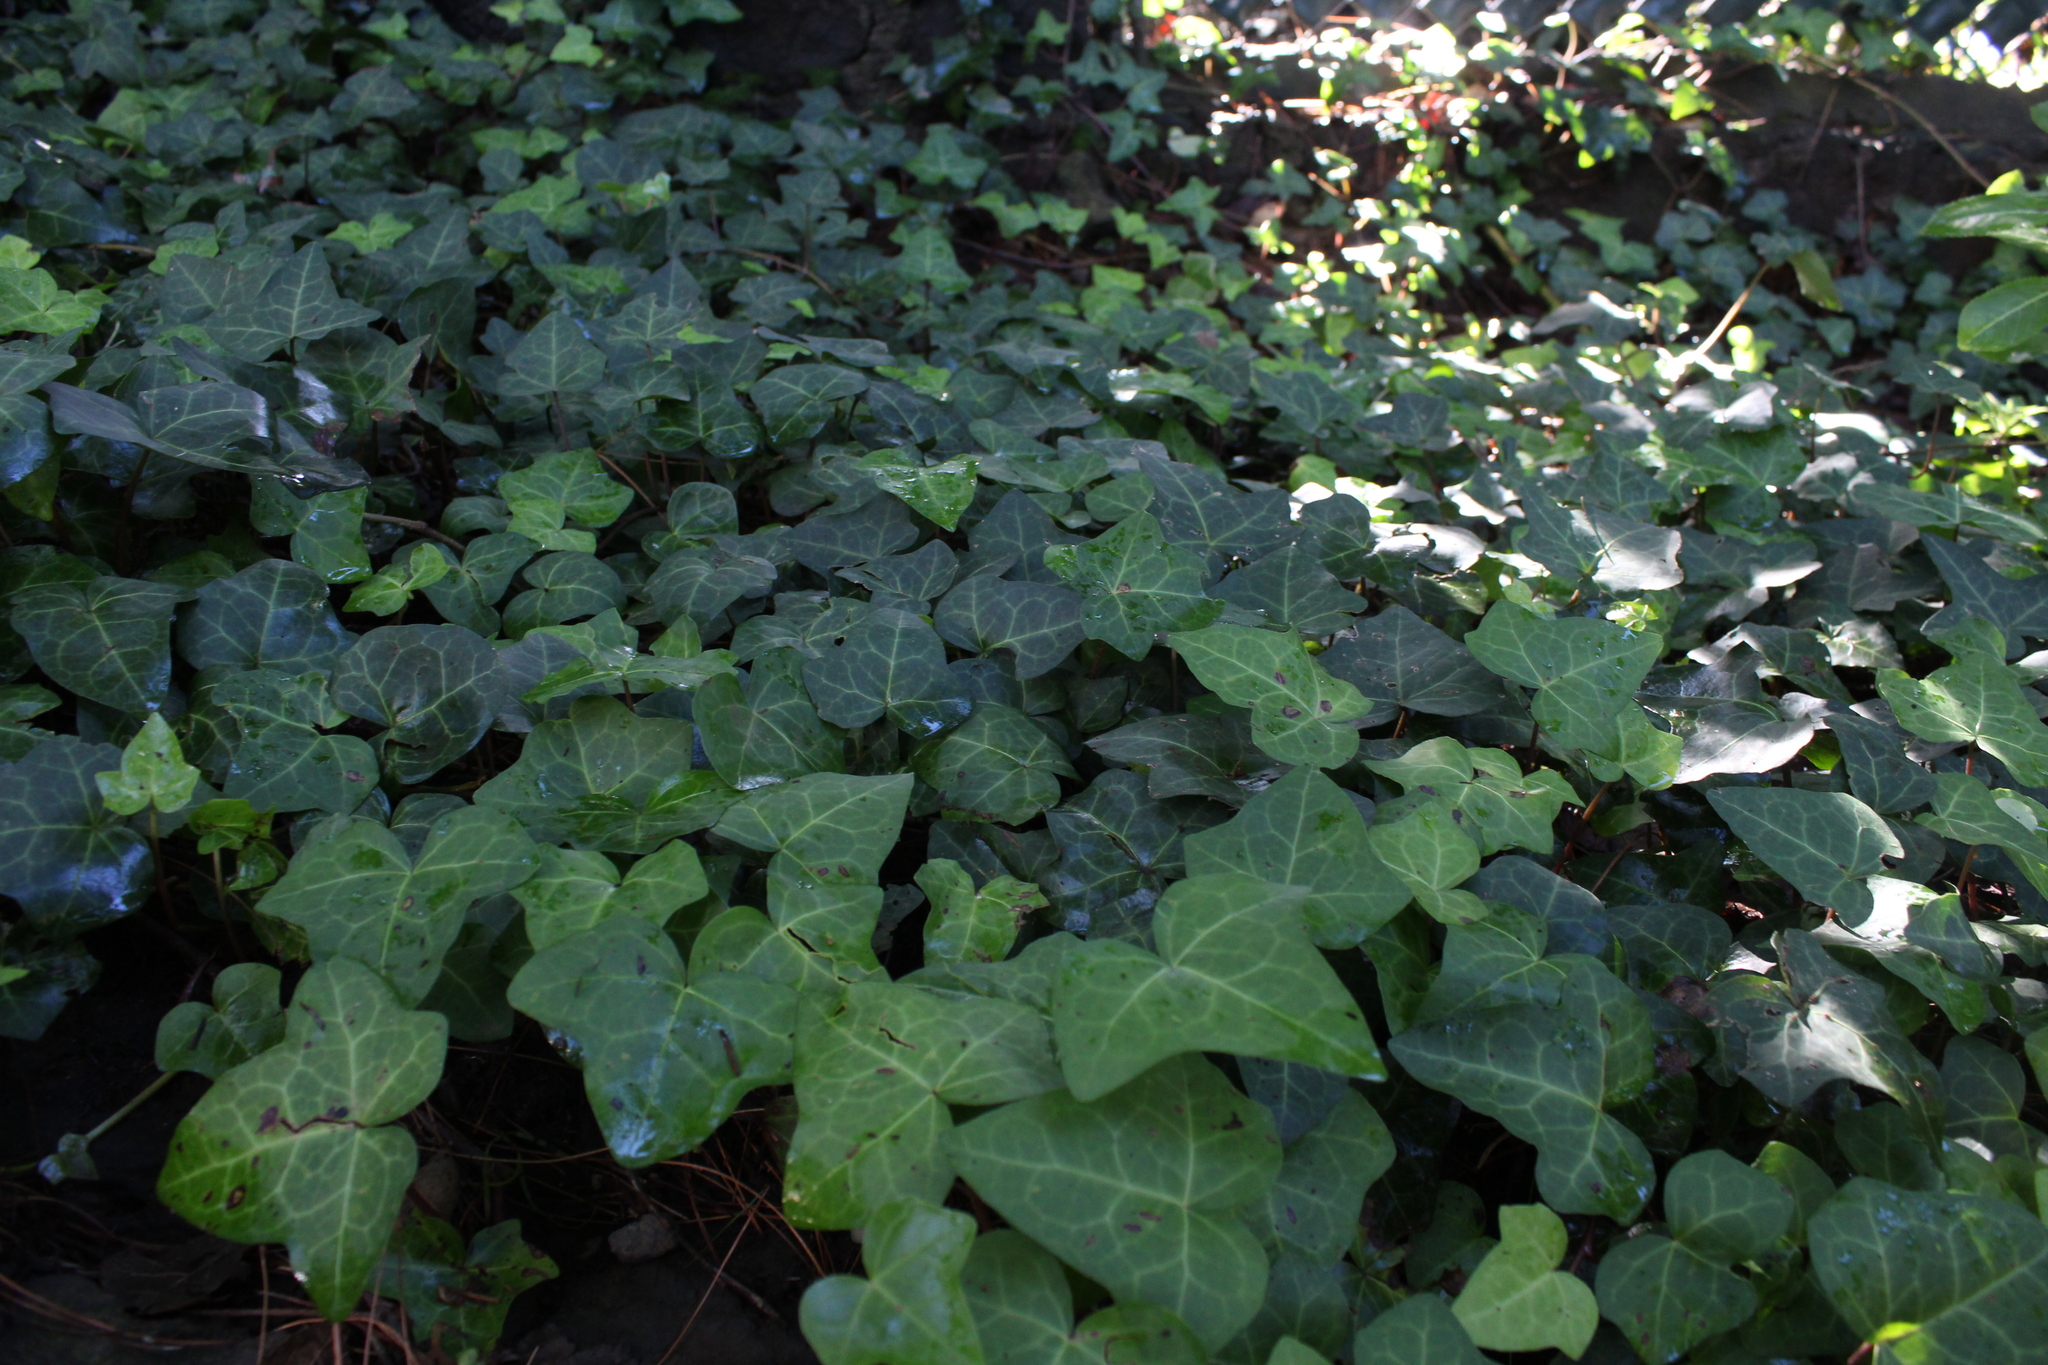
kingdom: Plantae
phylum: Tracheophyta
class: Magnoliopsida
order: Apiales
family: Araliaceae
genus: Hedera
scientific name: Hedera helix
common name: Ivy
